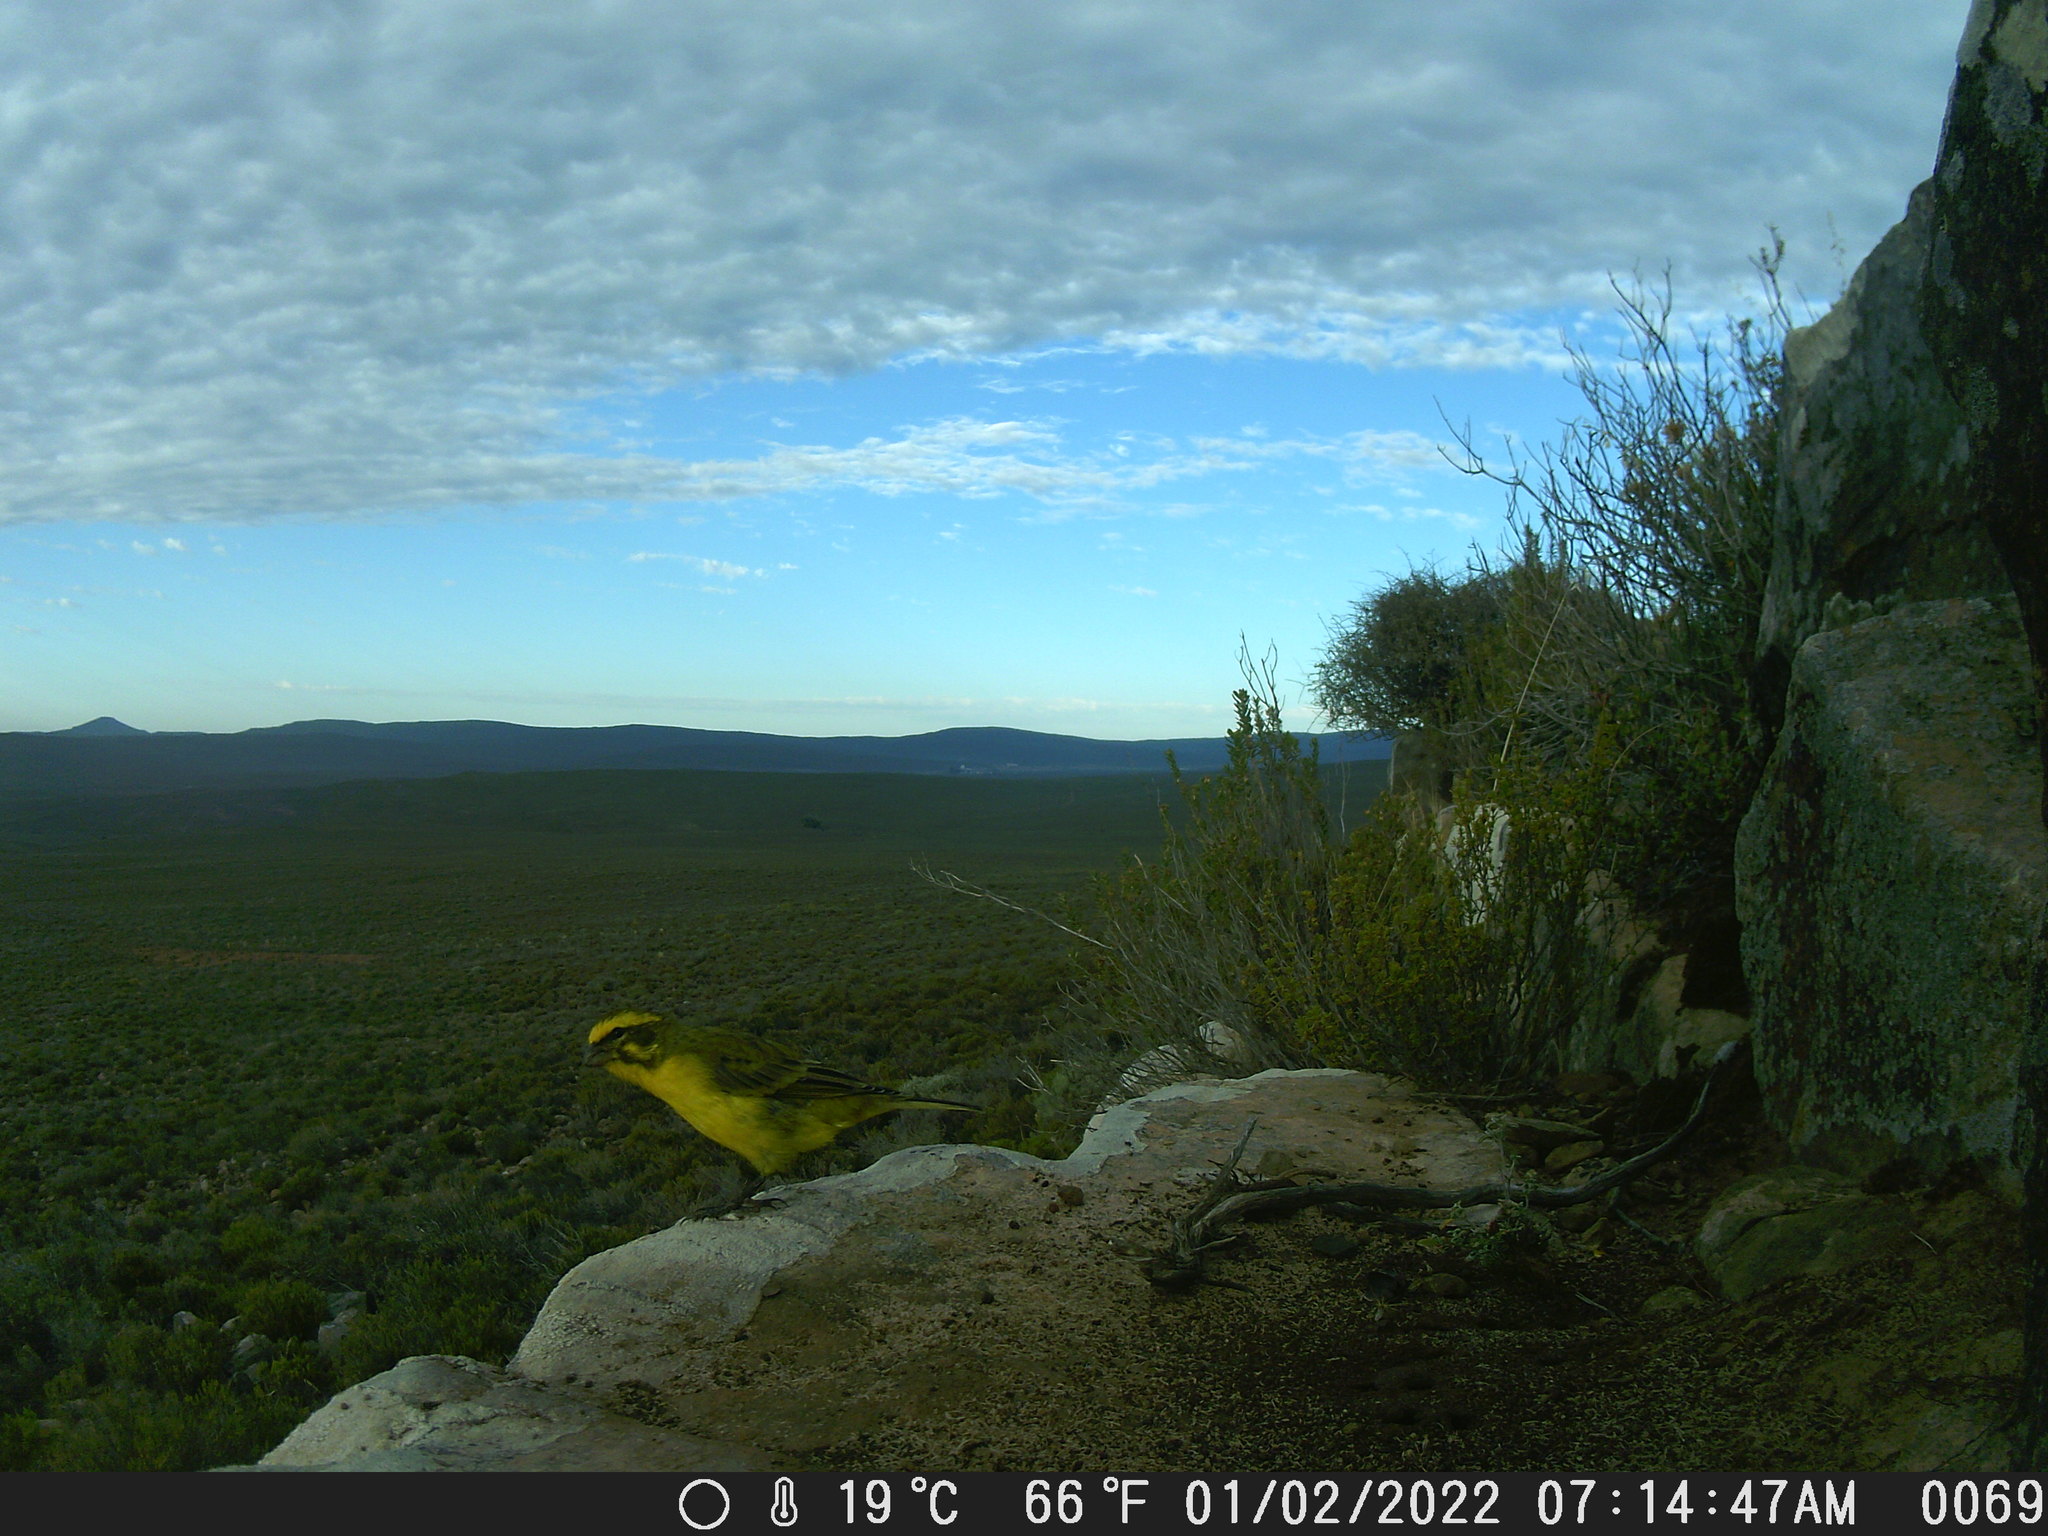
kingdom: Animalia
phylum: Chordata
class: Aves
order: Passeriformes
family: Fringillidae
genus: Crithagra
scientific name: Crithagra flaviventris
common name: Yellow canary
